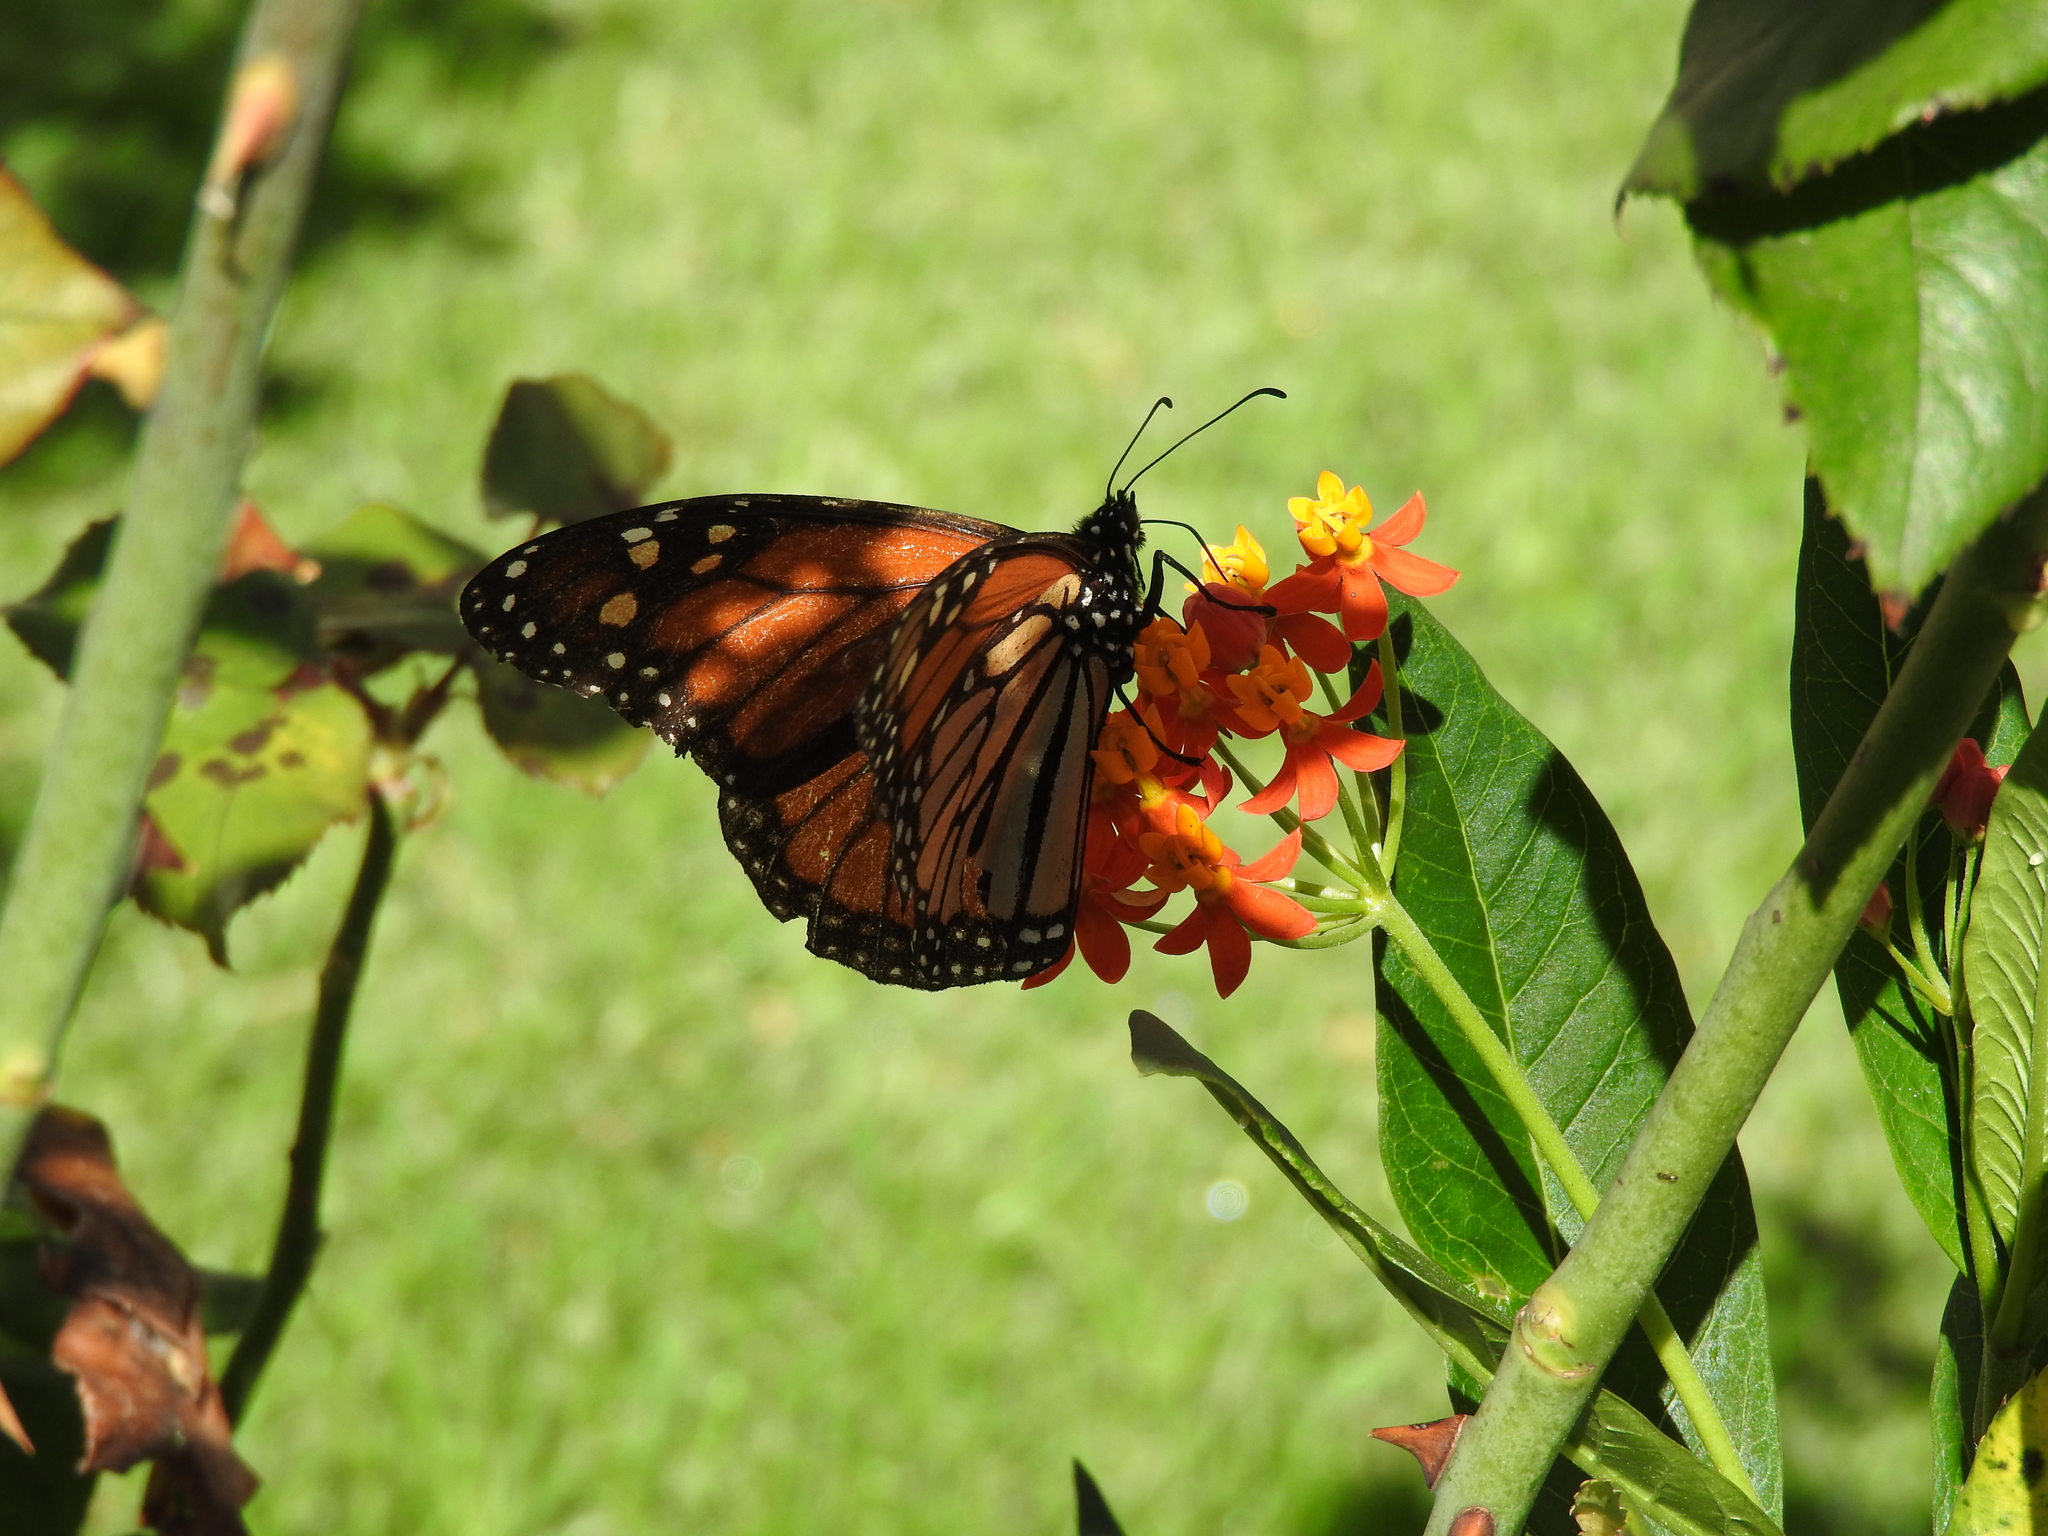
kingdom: Animalia
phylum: Arthropoda
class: Insecta
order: Lepidoptera
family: Nymphalidae
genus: Danaus
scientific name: Danaus plexippus
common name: Monarch
